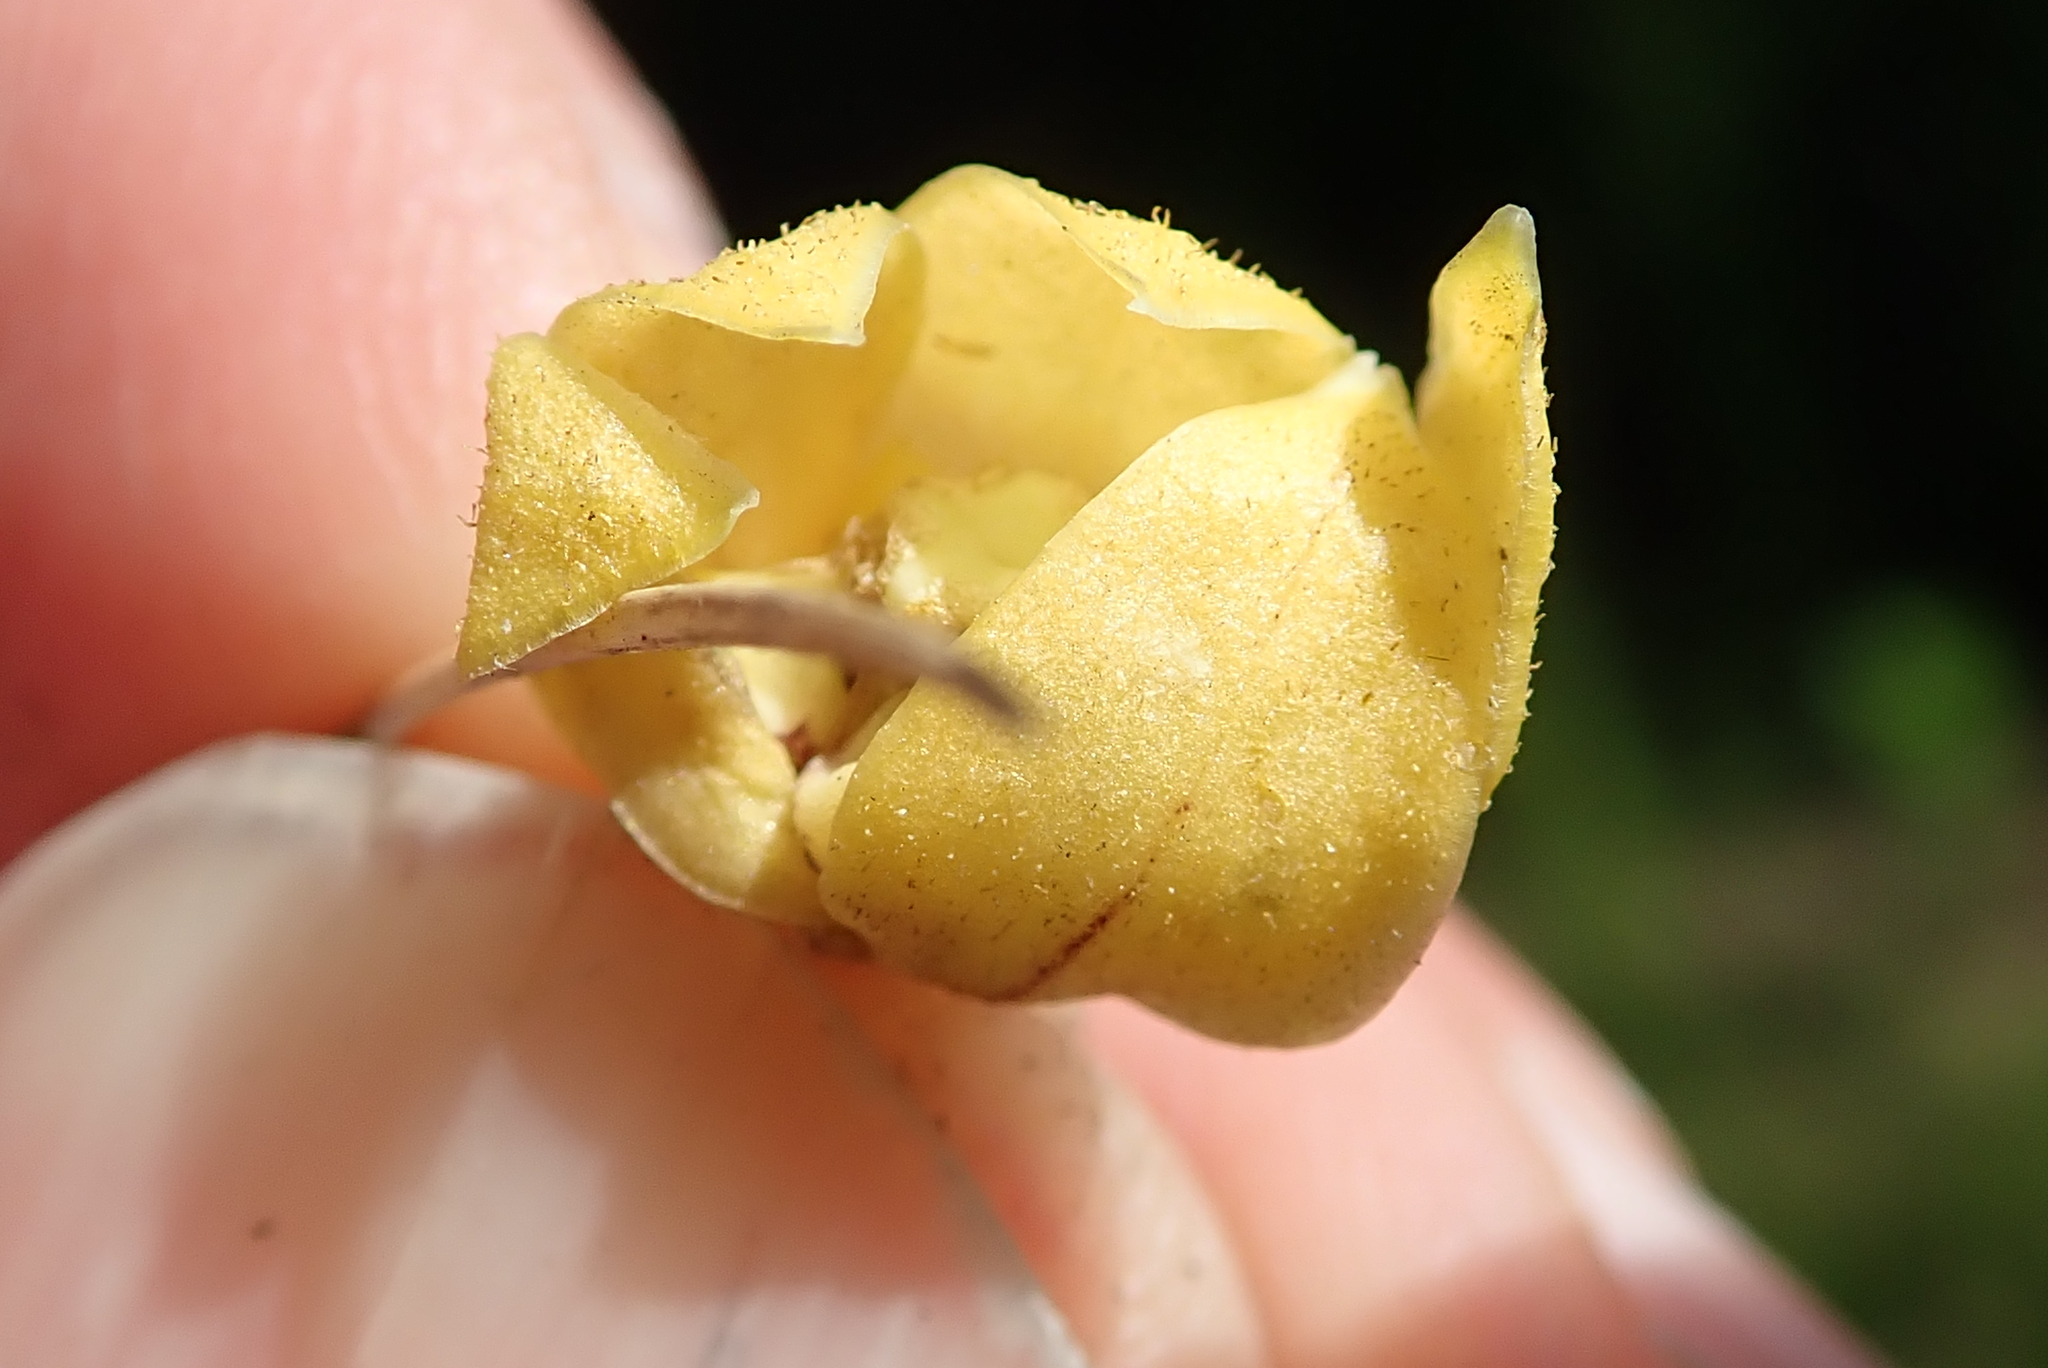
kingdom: Plantae
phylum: Tracheophyta
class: Magnoliopsida
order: Gentianales
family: Apocynaceae
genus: Asclepias
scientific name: Asclepias fulva
